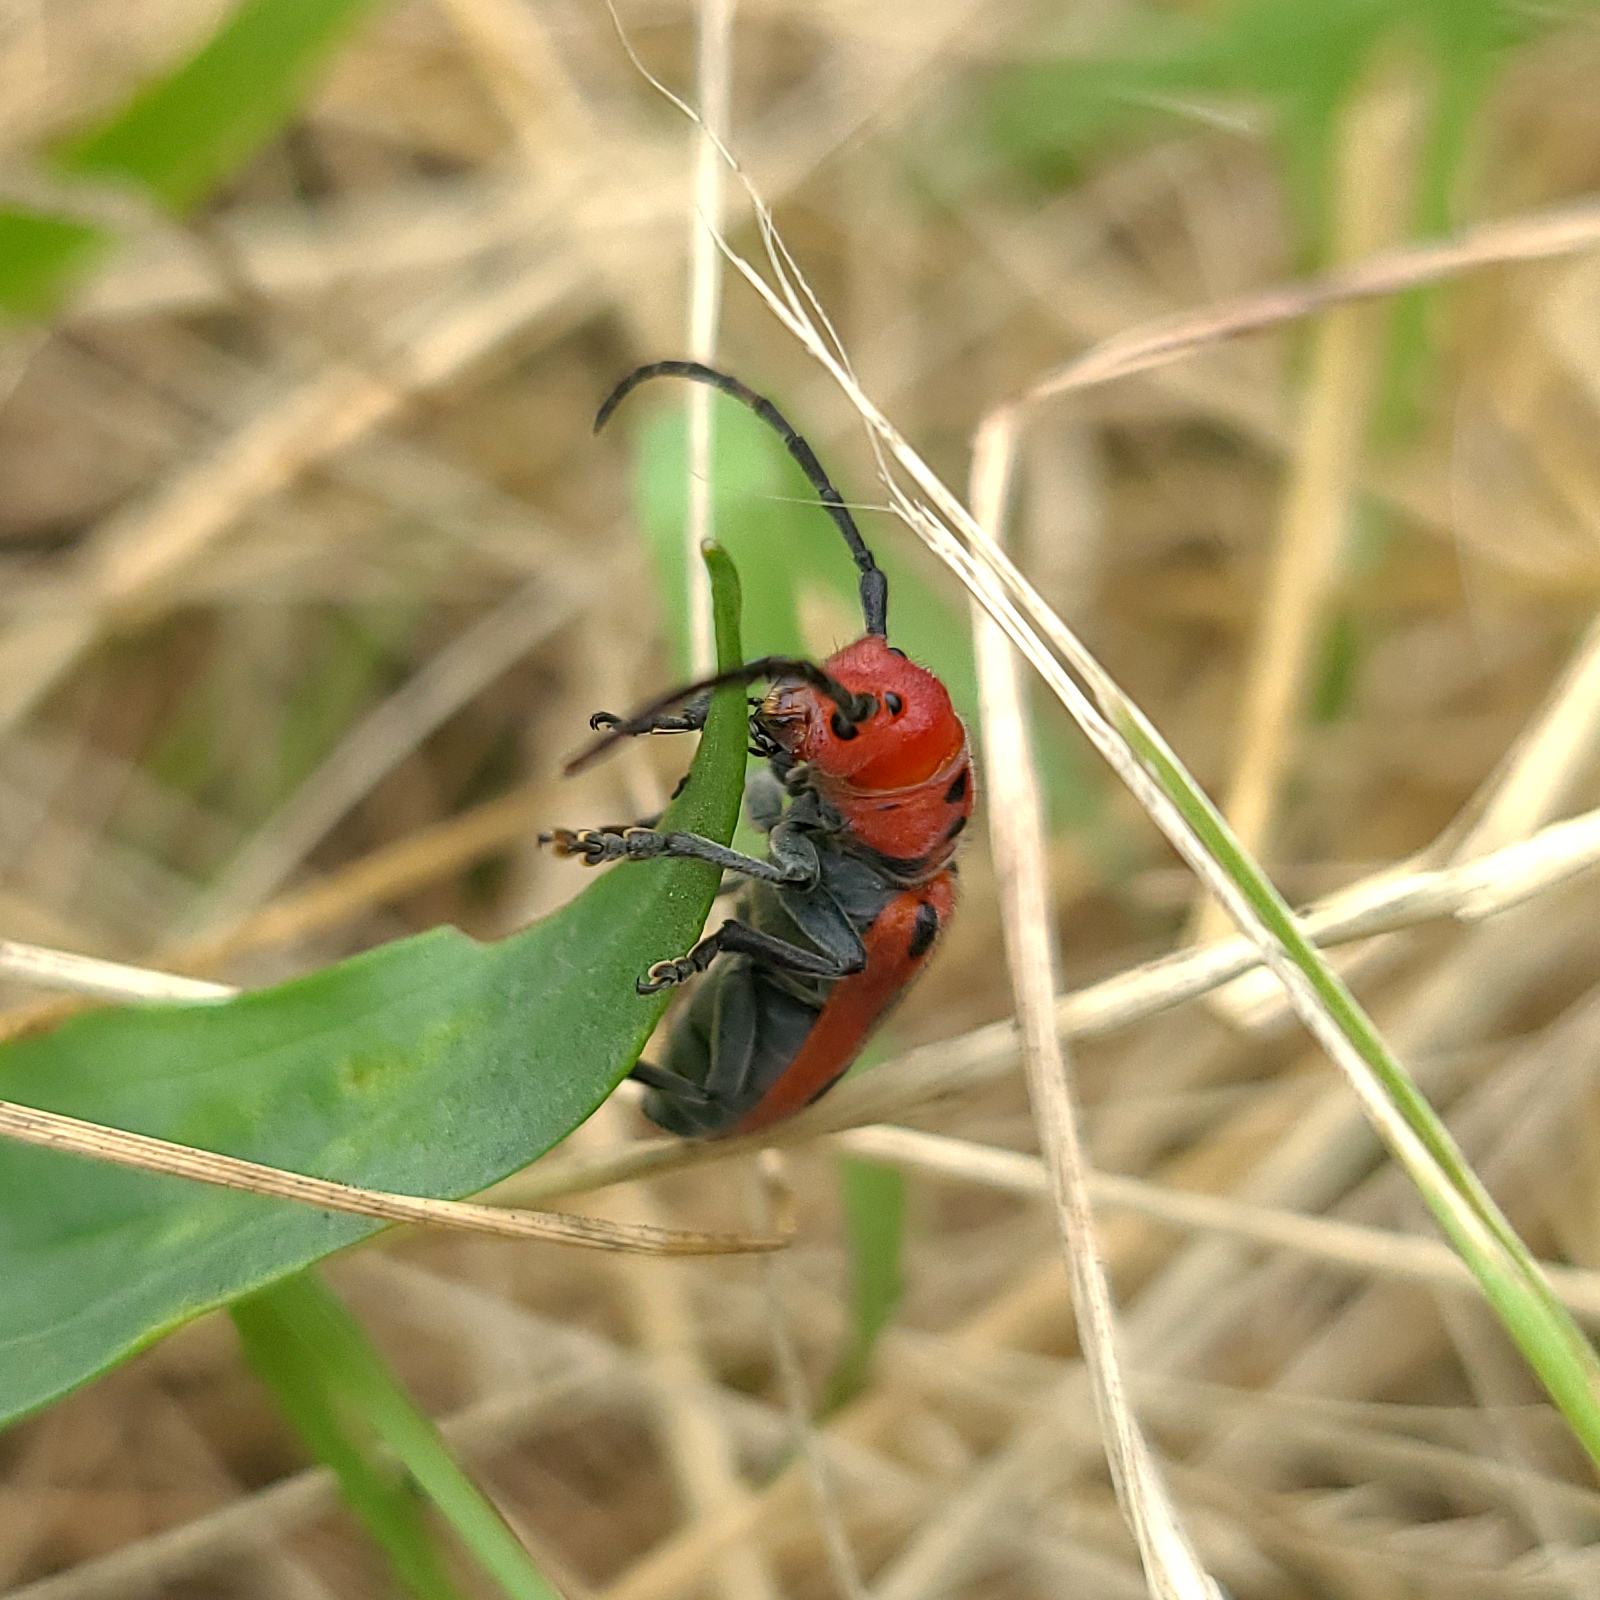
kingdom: Animalia
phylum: Arthropoda
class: Insecta
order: Coleoptera
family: Cerambycidae
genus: Tetraopes
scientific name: Tetraopes tetrophthalmus
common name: Red milkweed beetle
